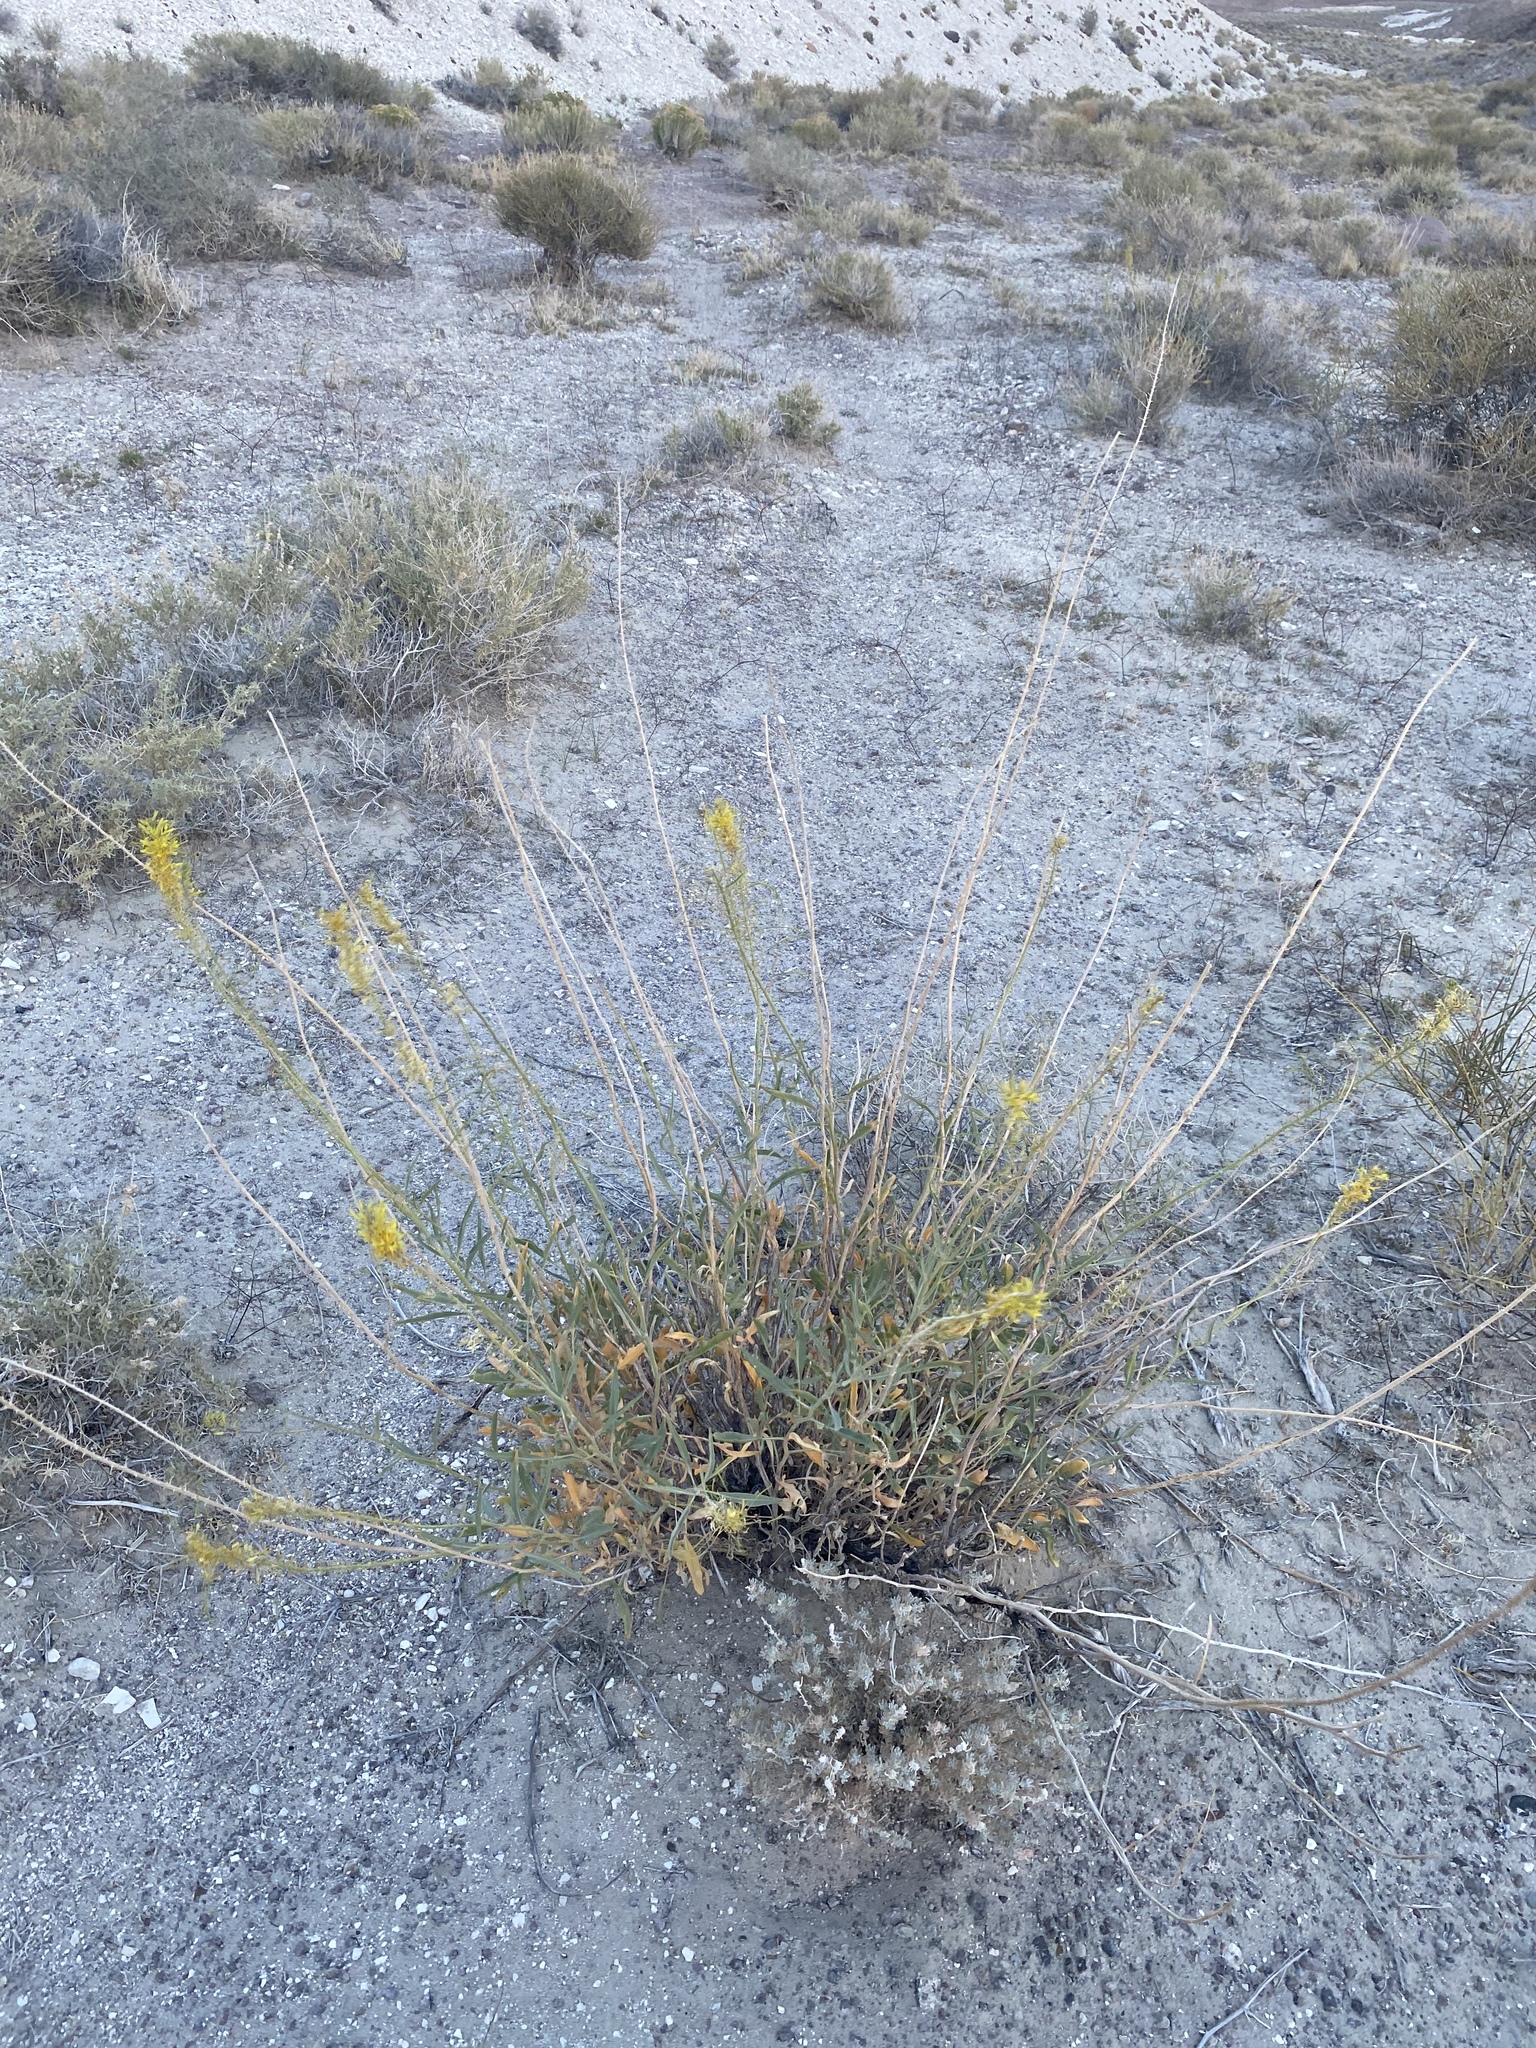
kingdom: Plantae
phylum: Tracheophyta
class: Magnoliopsida
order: Brassicales
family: Brassicaceae
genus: Stanleya
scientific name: Stanleya pinnata
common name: Prince's-plume
